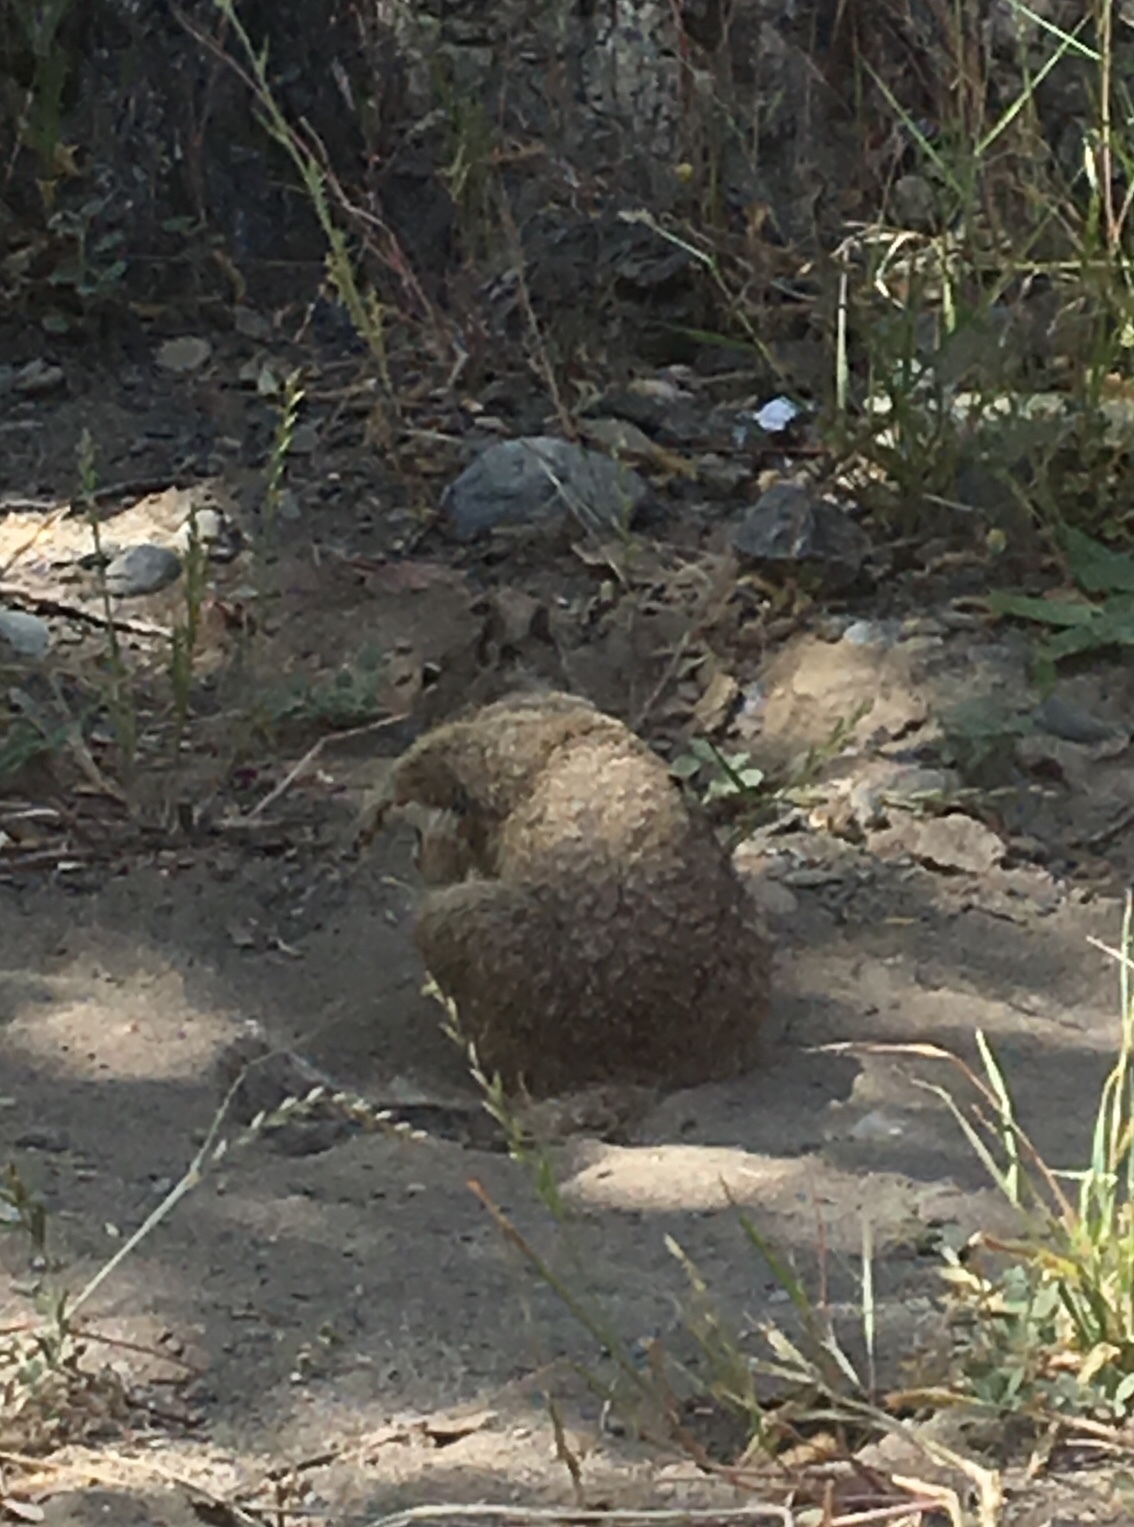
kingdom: Animalia
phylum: Chordata
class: Mammalia
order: Rodentia
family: Sciuridae
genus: Otospermophilus
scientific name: Otospermophilus beecheyi
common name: California ground squirrel
